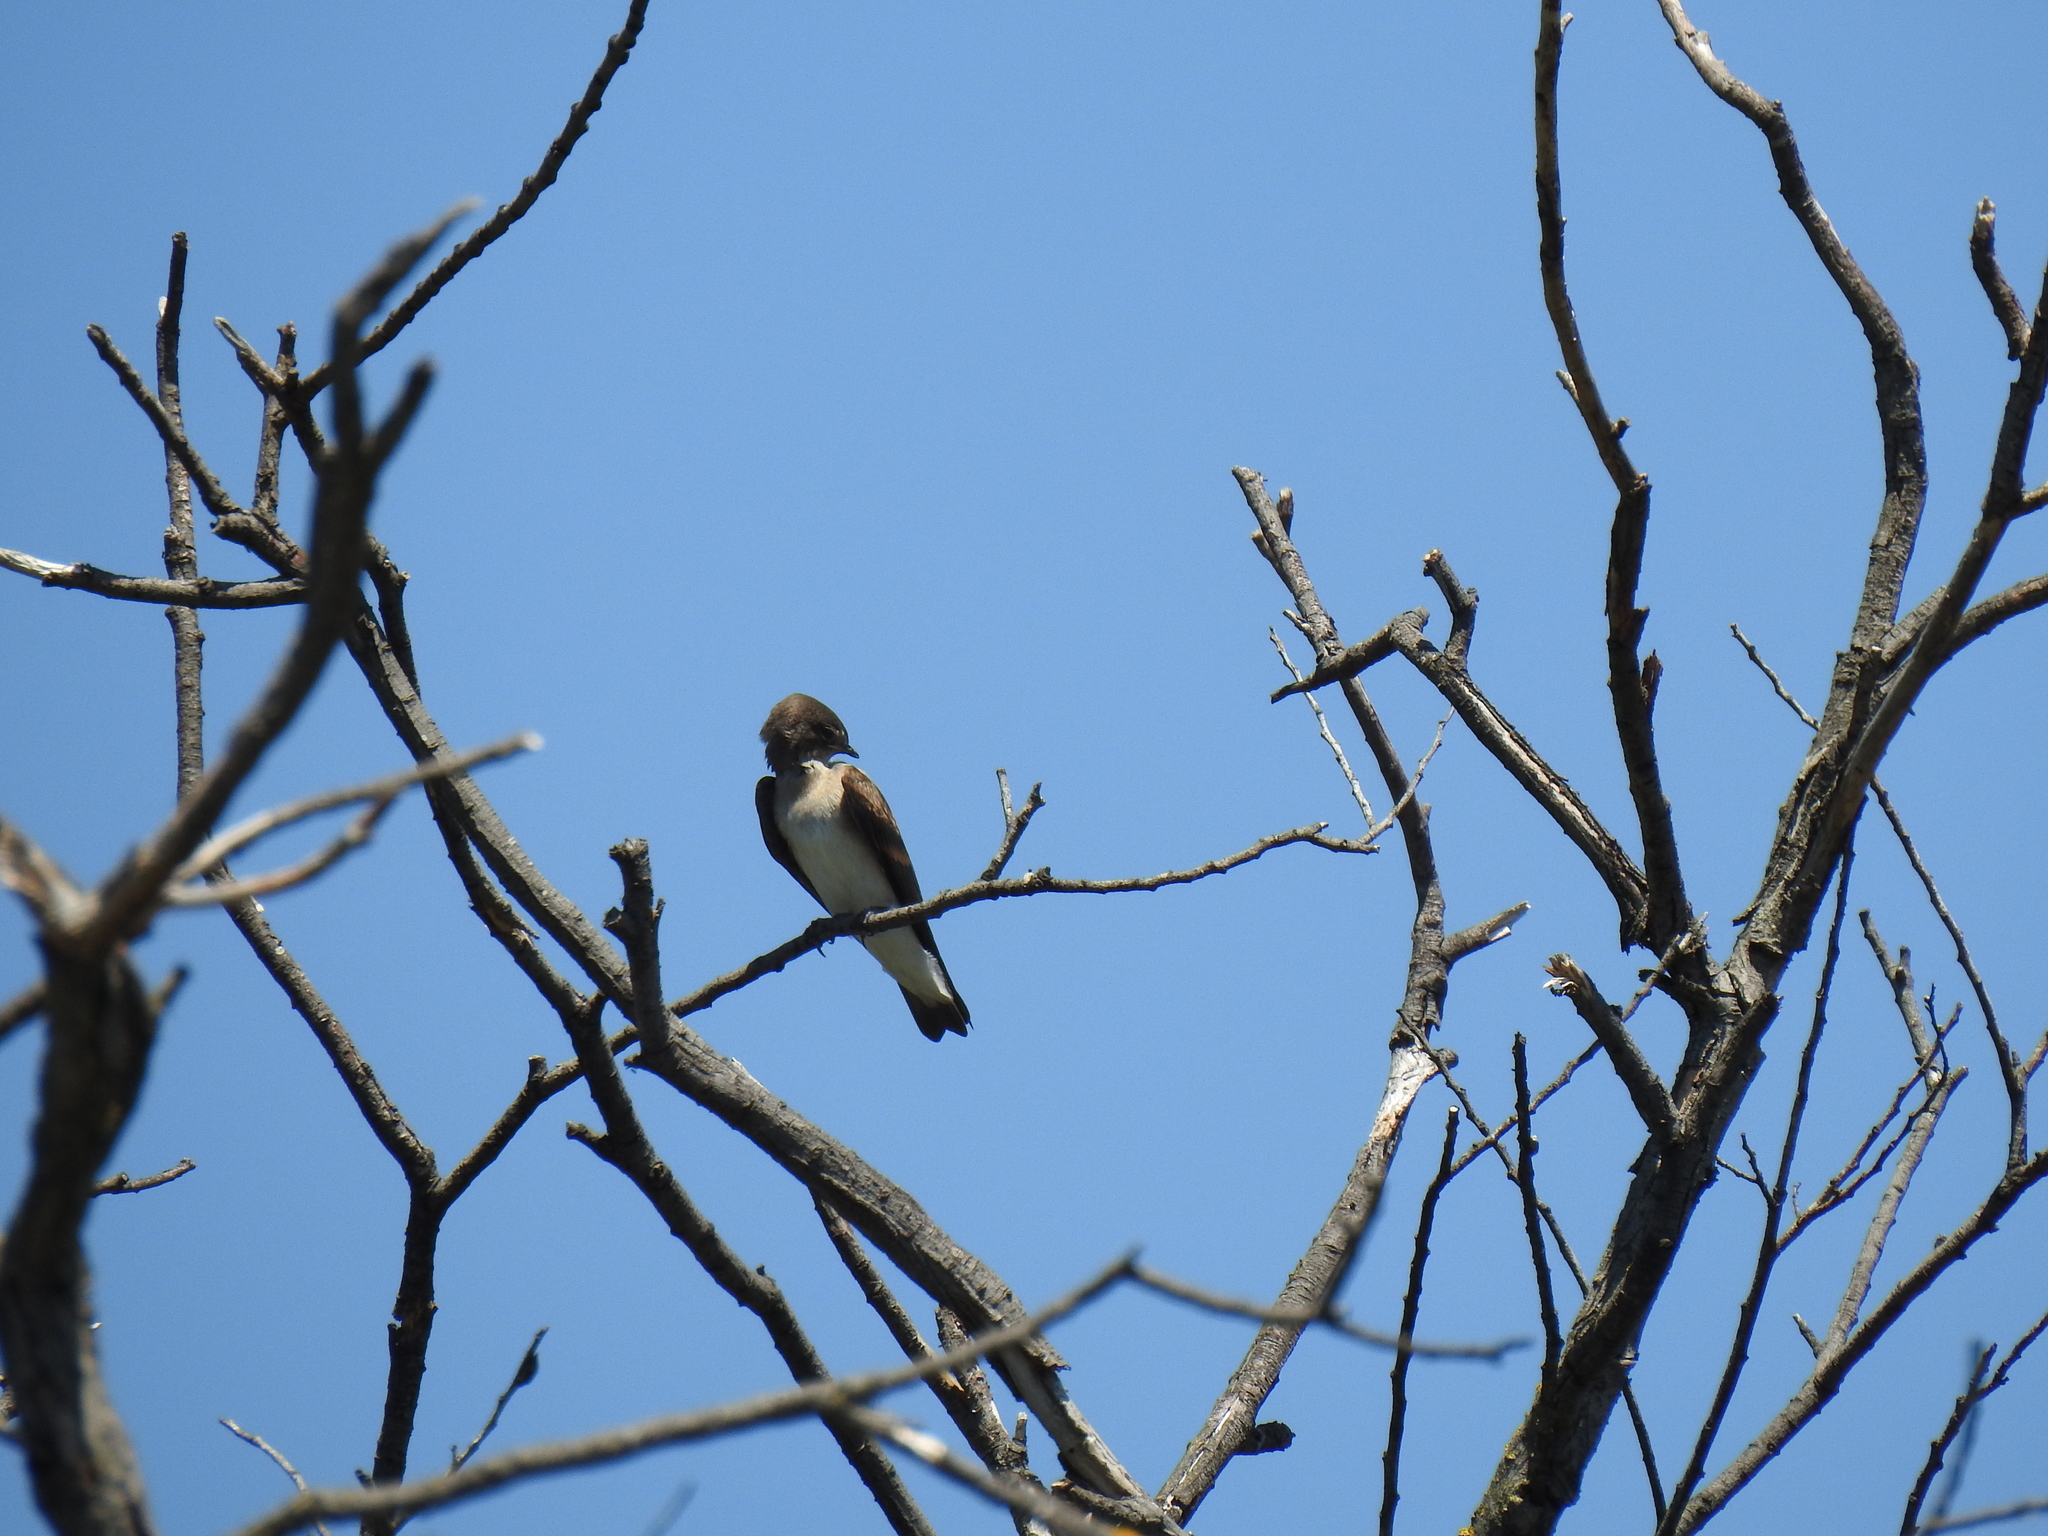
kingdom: Animalia
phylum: Chordata
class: Aves
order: Passeriformes
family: Hirundinidae
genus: Stelgidopteryx
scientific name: Stelgidopteryx serripennis
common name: Northern rough-winged swallow
